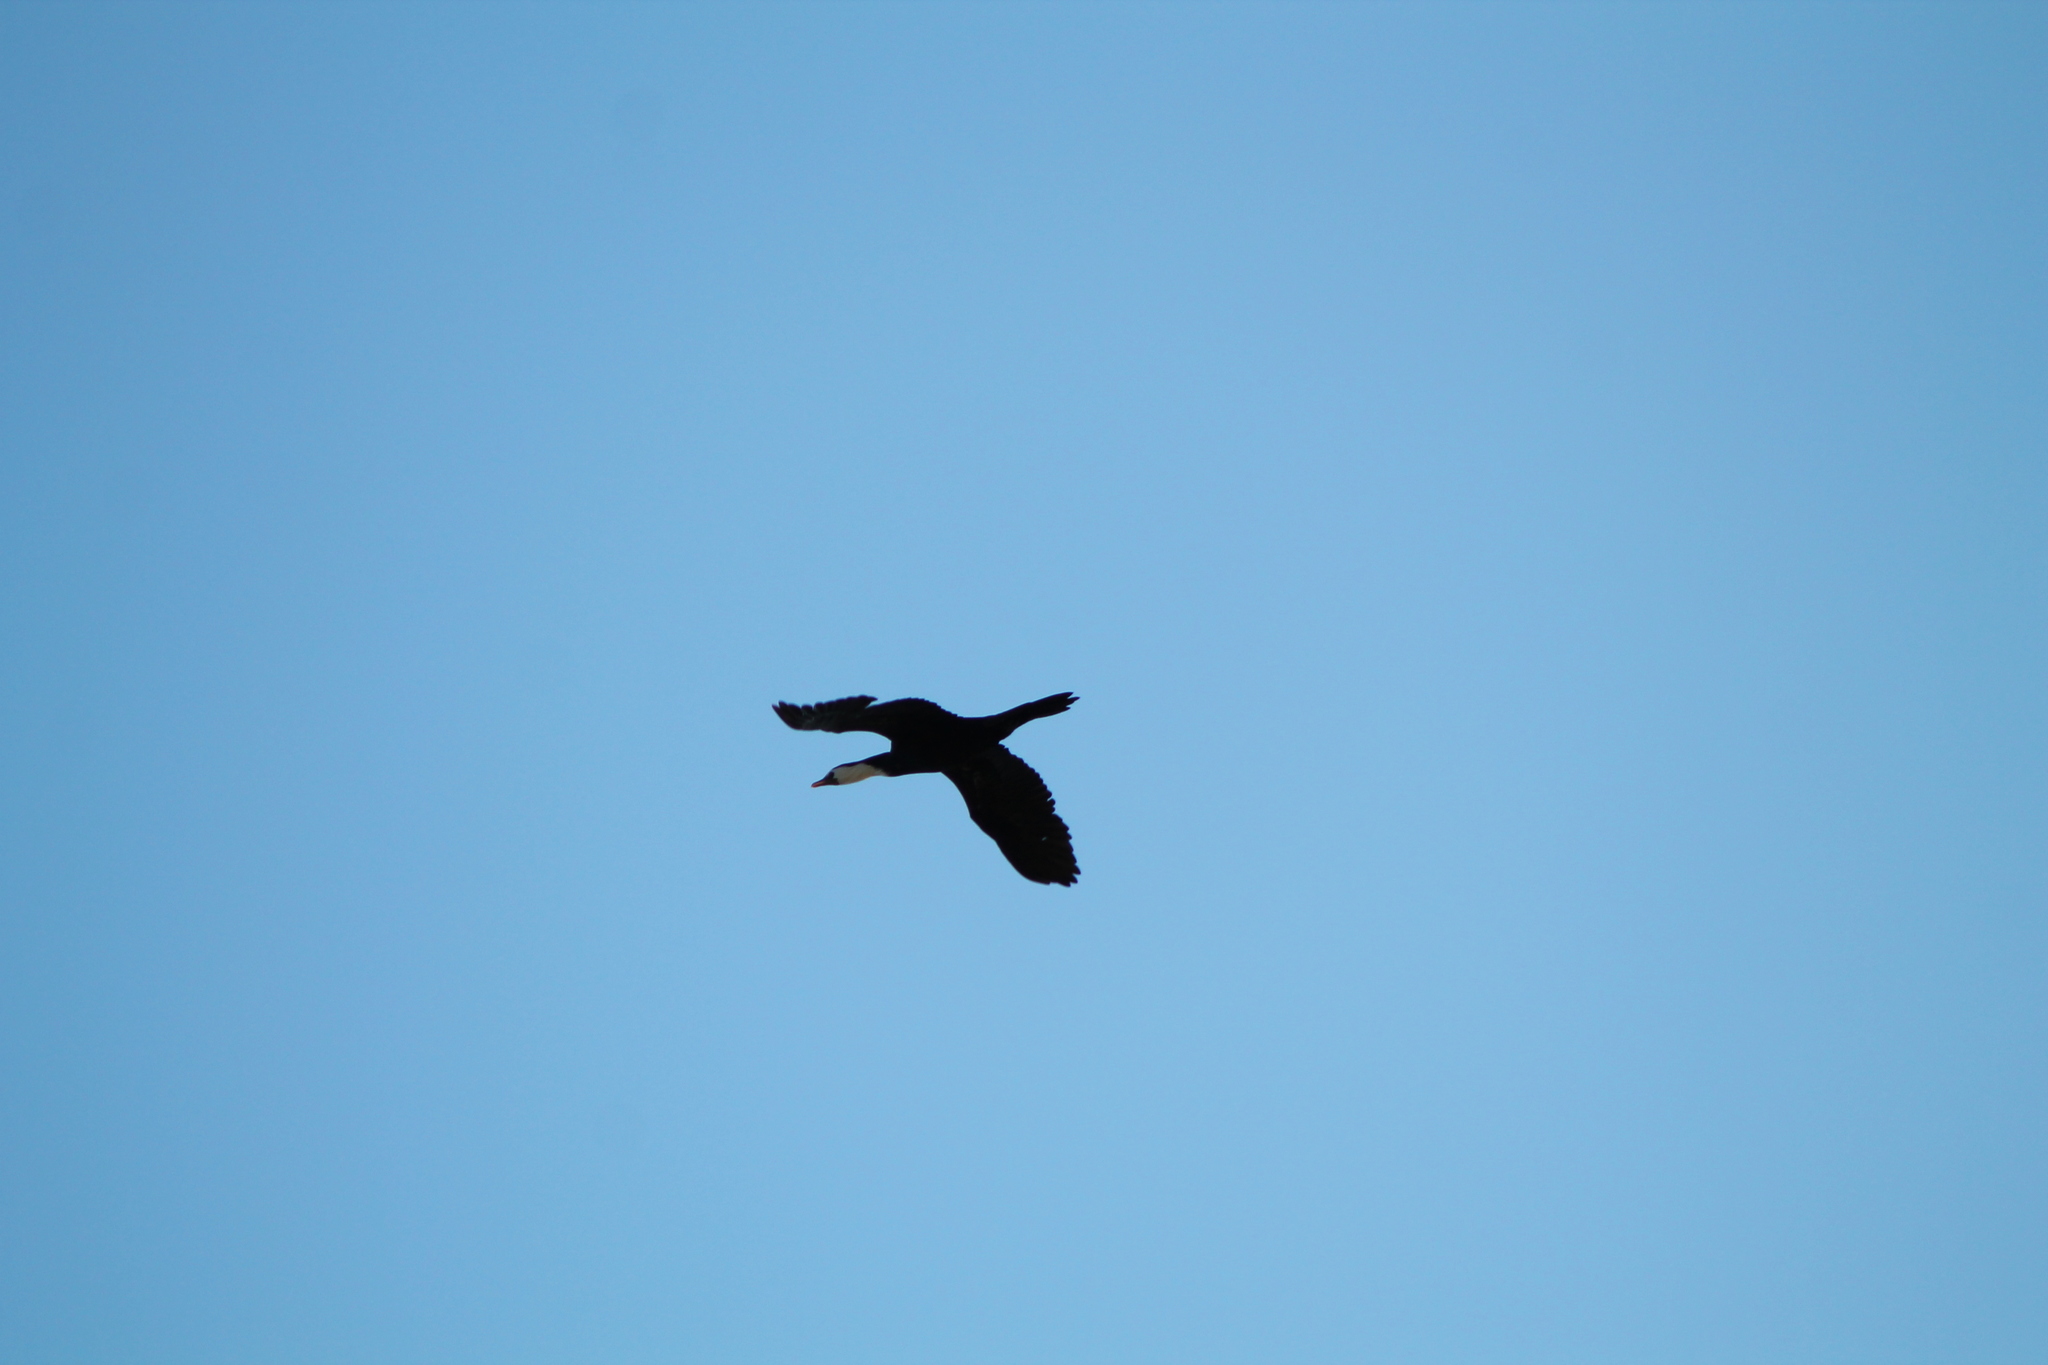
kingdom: Animalia
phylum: Chordata
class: Aves
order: Suliformes
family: Phalacrocoracidae
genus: Microcarbo
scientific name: Microcarbo melanoleucos
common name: Little pied cormorant
